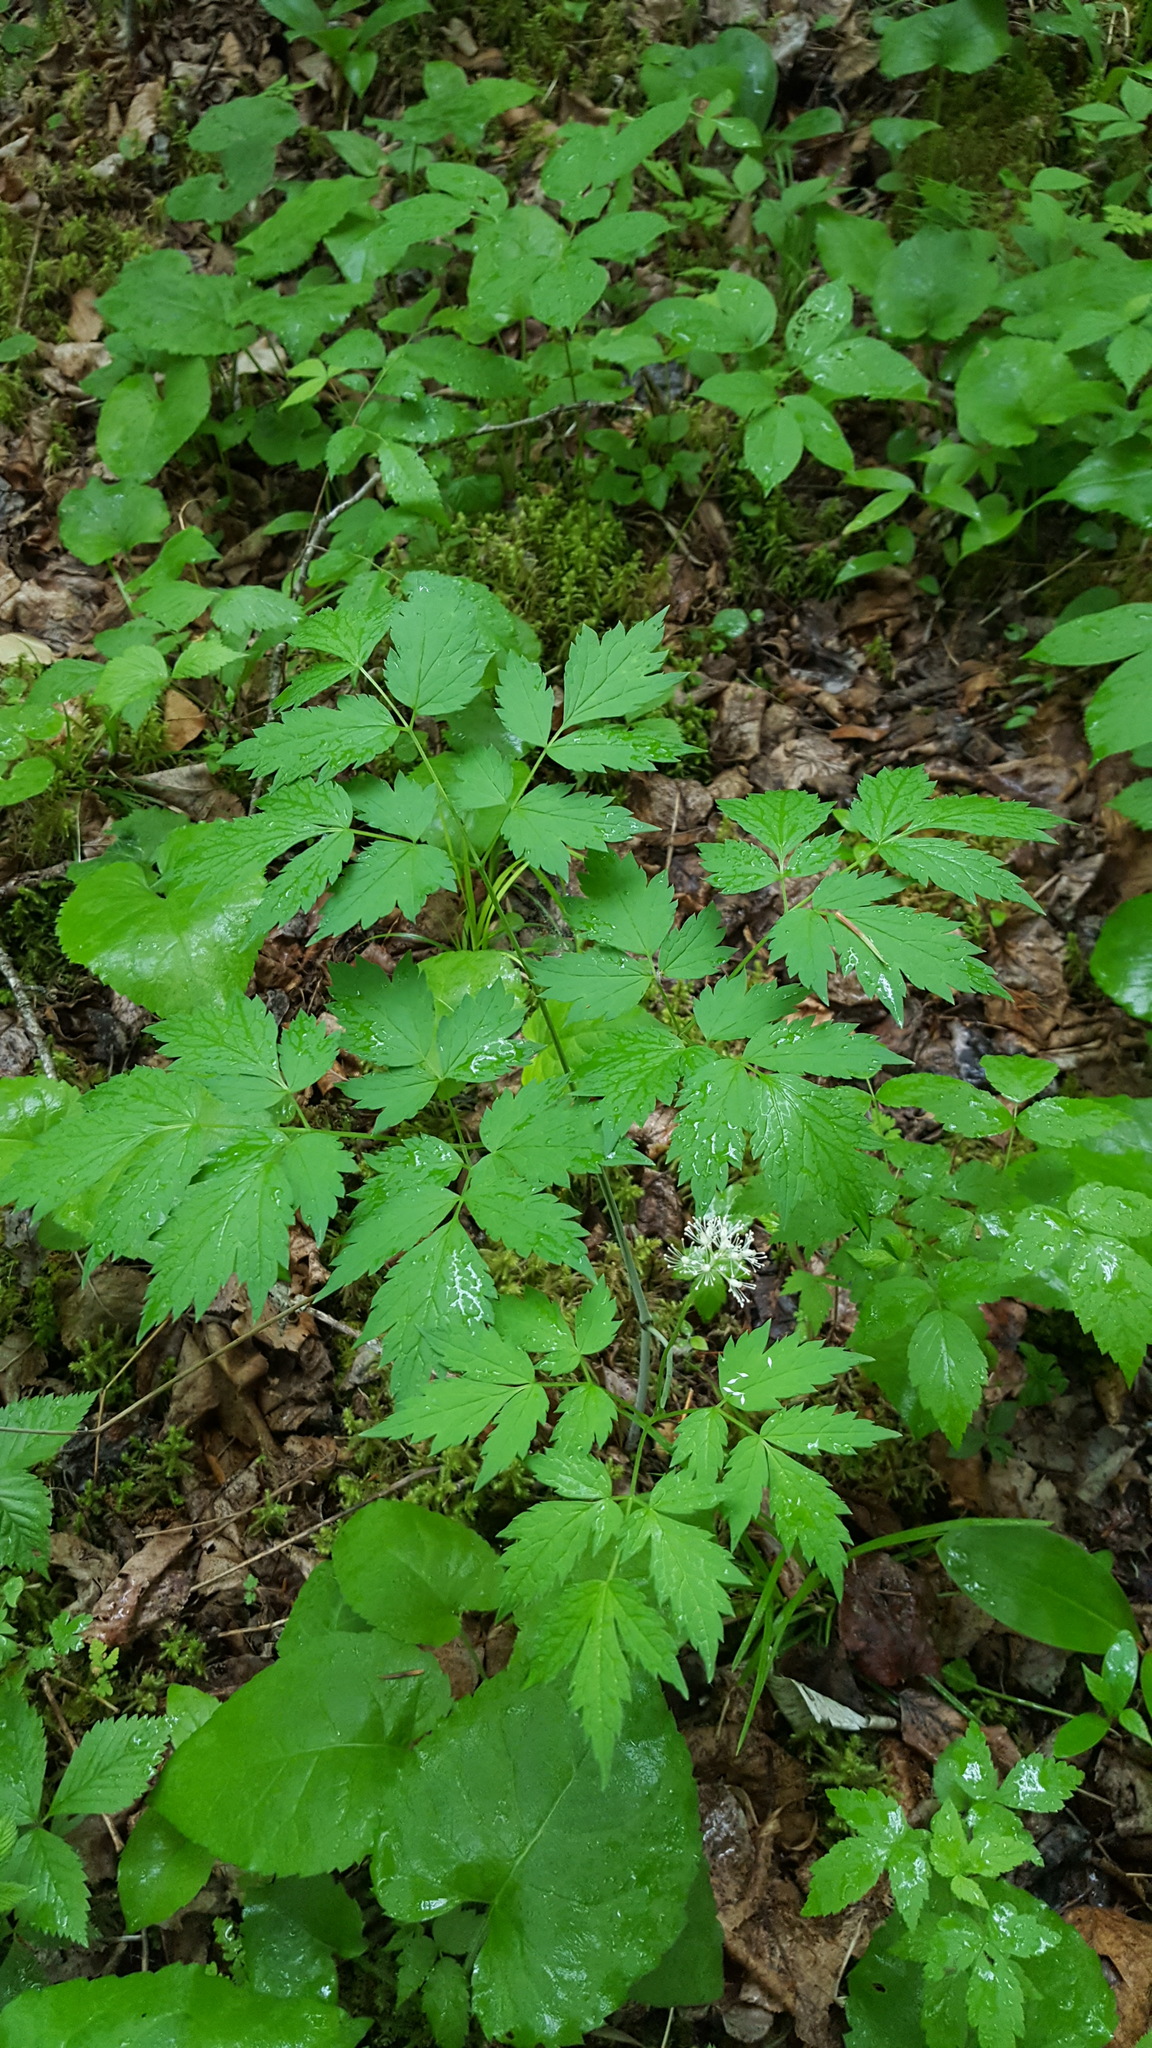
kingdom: Plantae
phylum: Tracheophyta
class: Magnoliopsida
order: Ranunculales
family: Ranunculaceae
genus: Actaea
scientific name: Actaea rubra
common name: Red baneberry
